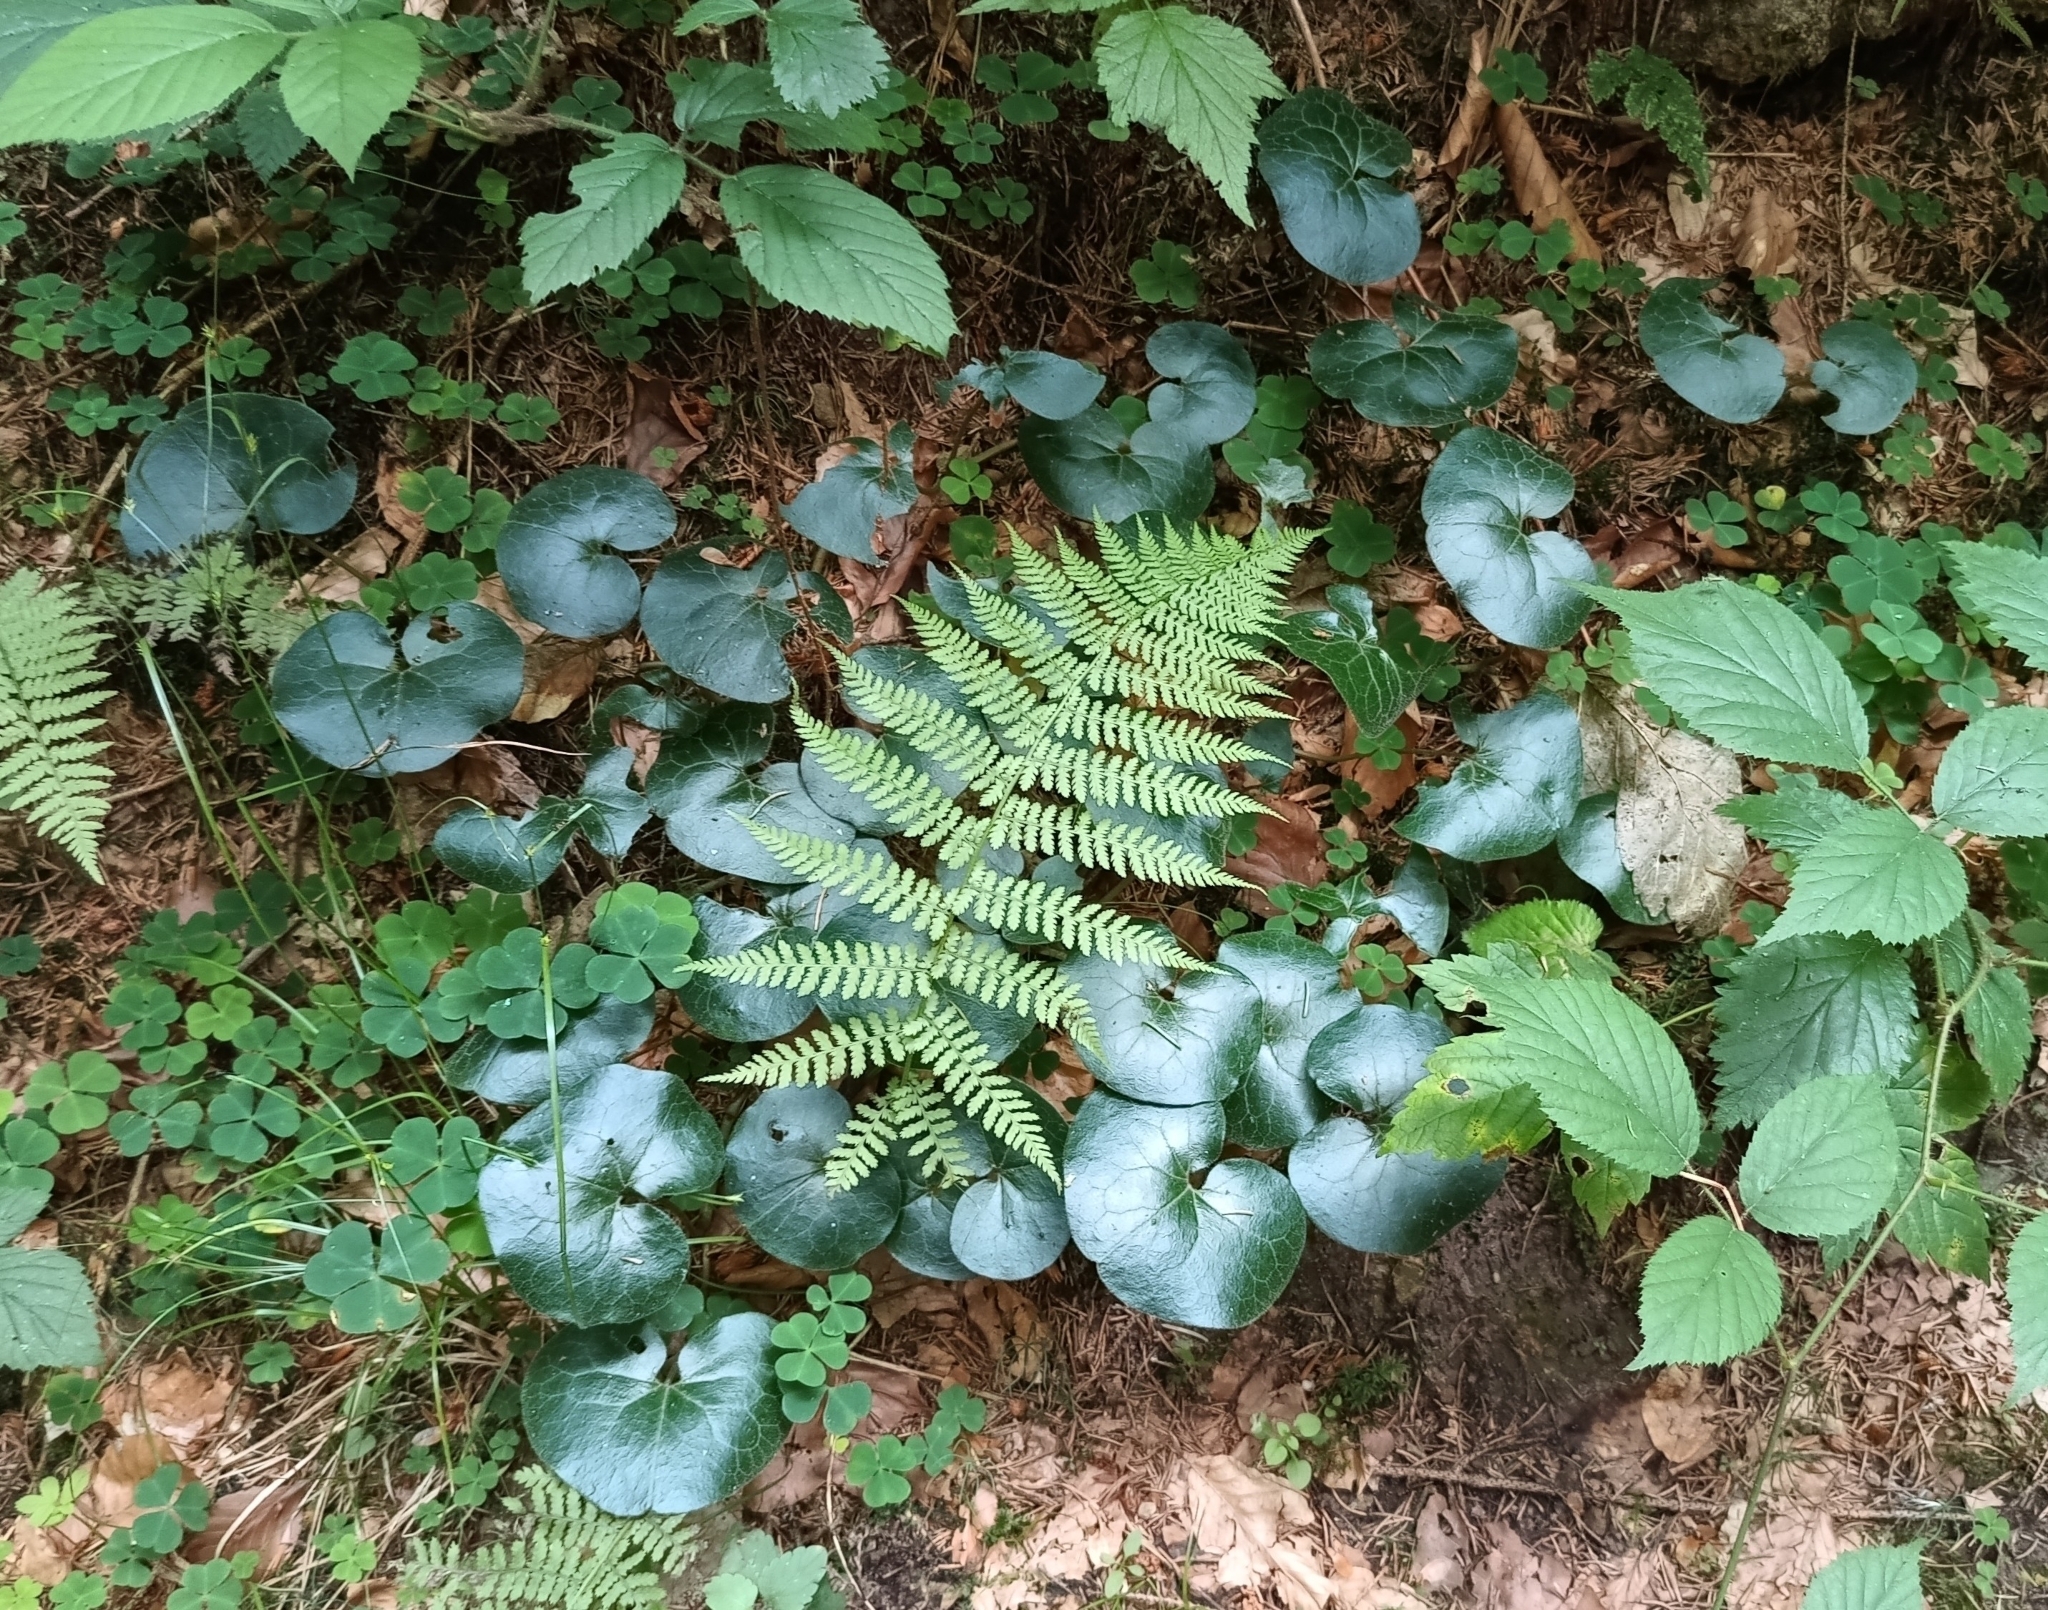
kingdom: Plantae
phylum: Tracheophyta
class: Magnoliopsida
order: Piperales
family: Aristolochiaceae
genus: Asarum
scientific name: Asarum europaeum
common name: Asarabacca
